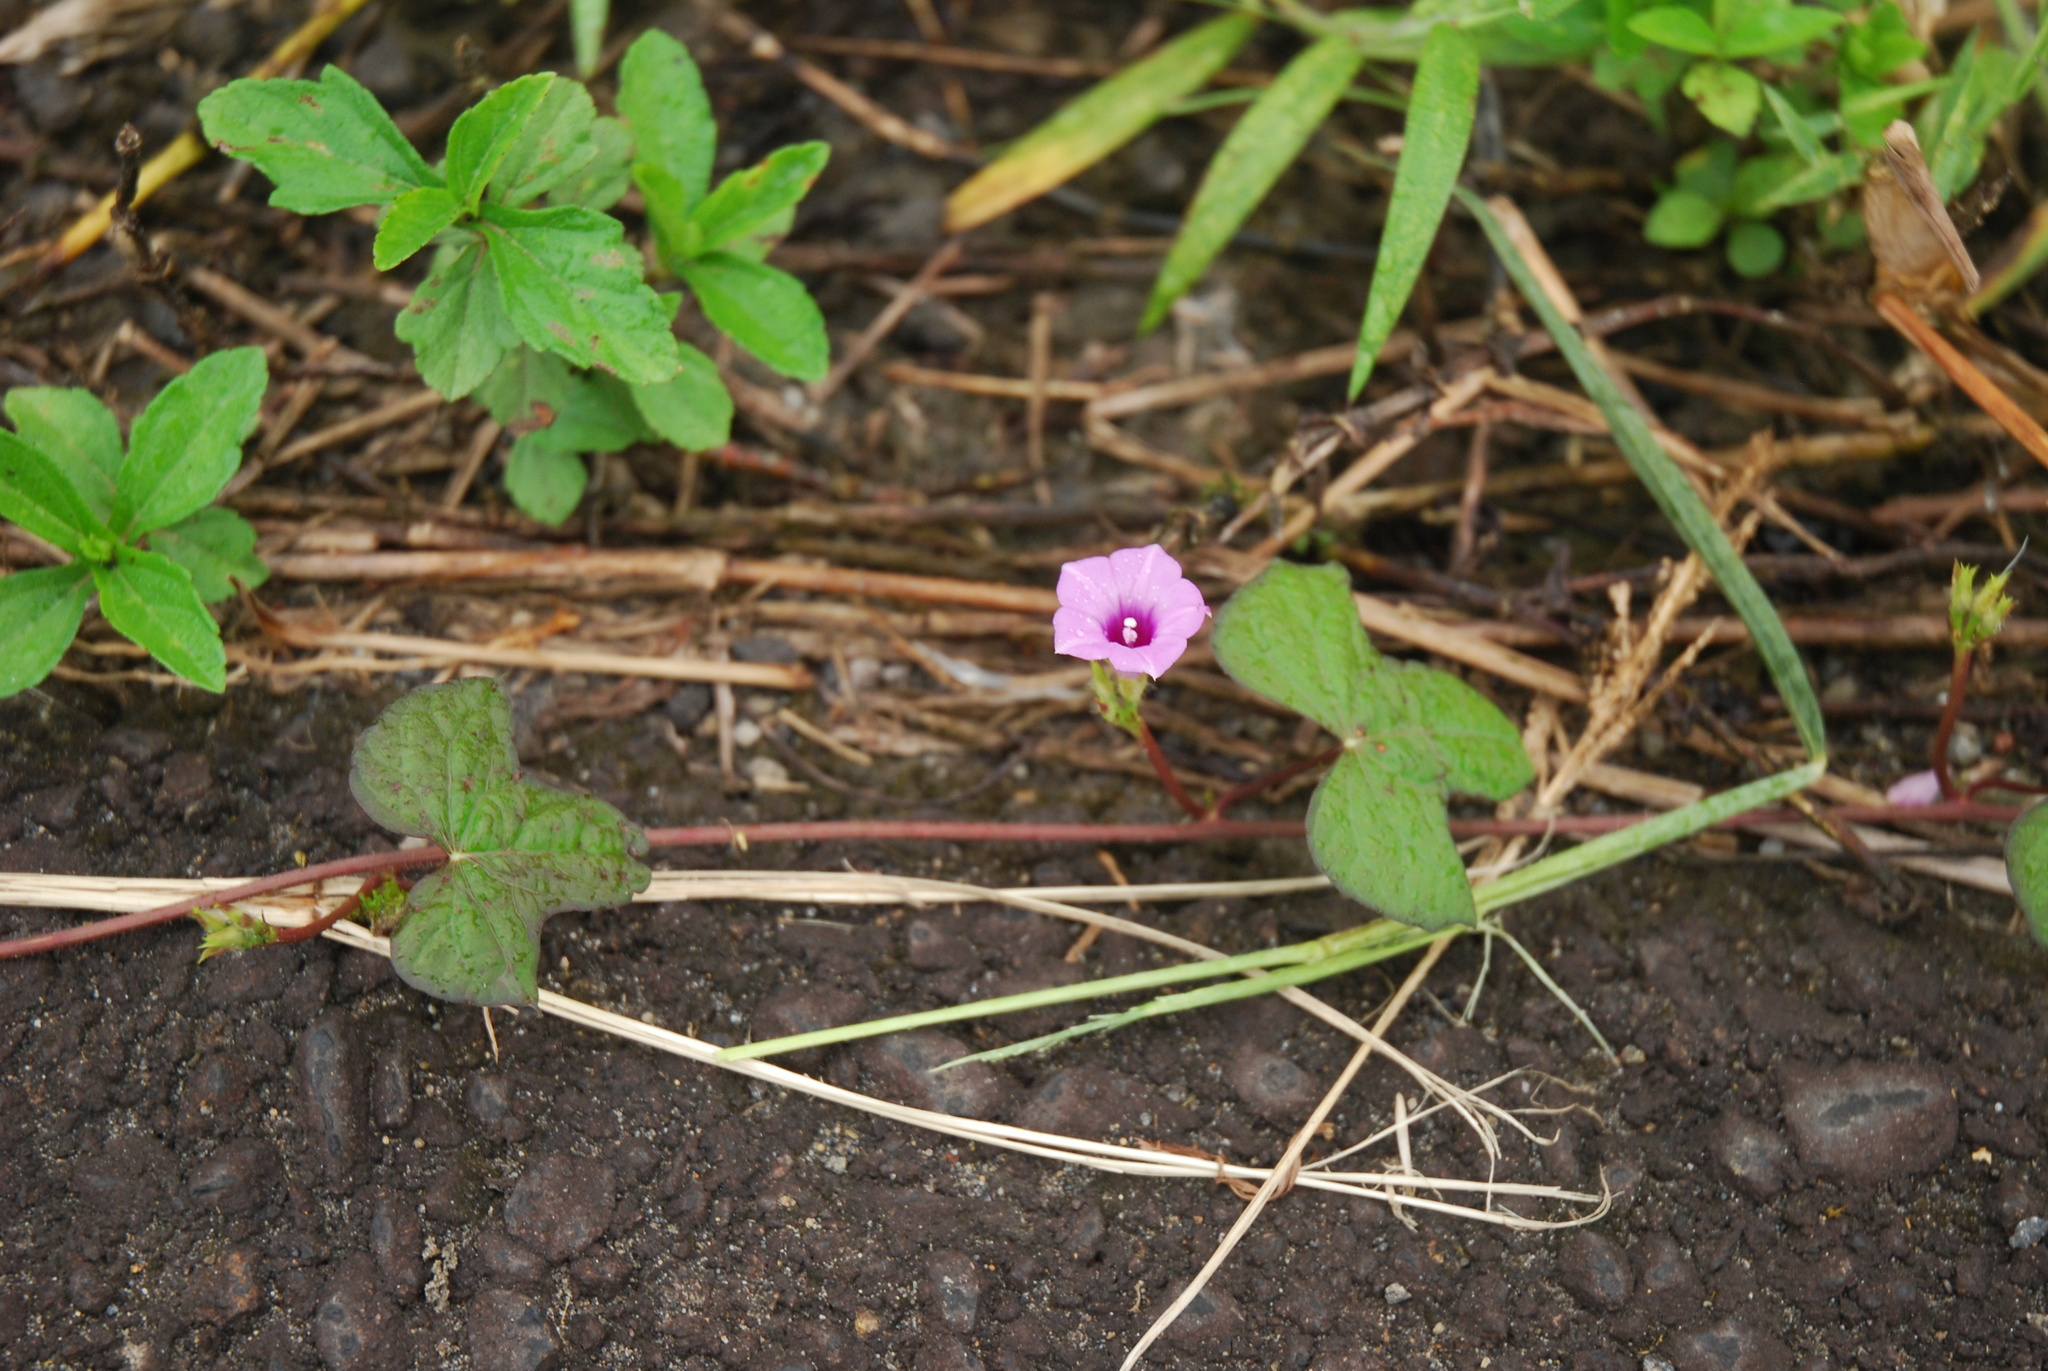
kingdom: Plantae
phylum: Tracheophyta
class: Magnoliopsida
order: Solanales
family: Convolvulaceae
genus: Ipomoea
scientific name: Ipomoea triloba
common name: Little-bell
